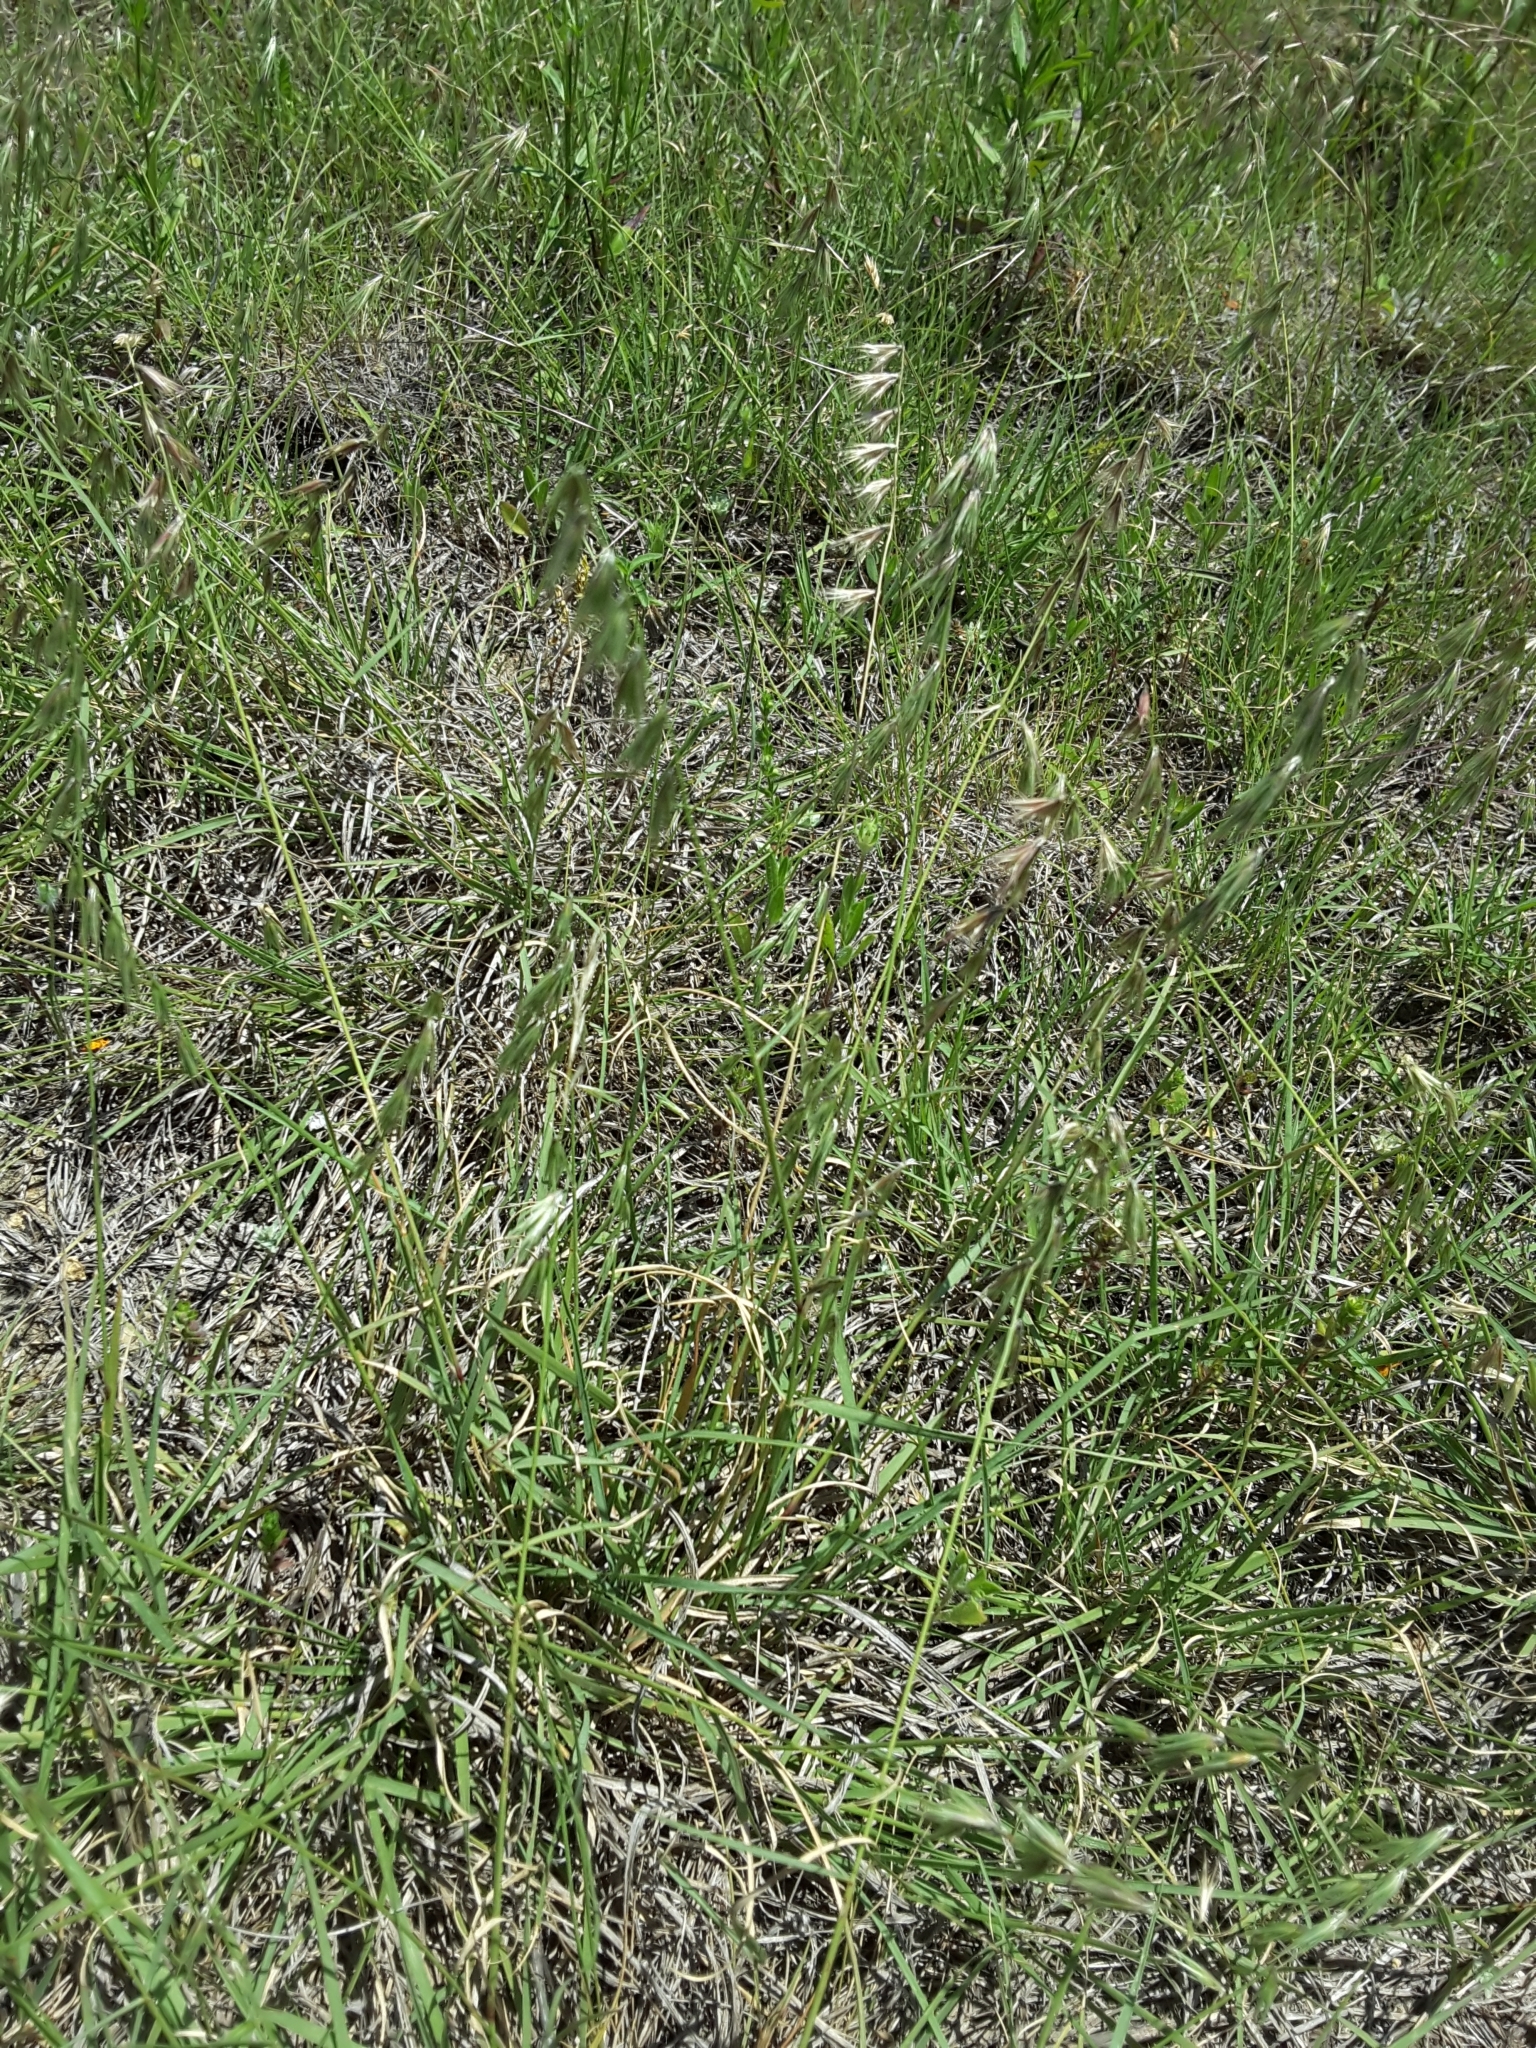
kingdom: Plantae
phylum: Tracheophyta
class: Liliopsida
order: Poales
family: Poaceae
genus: Bouteloua
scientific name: Bouteloua rigidiseta
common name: Texas grama
